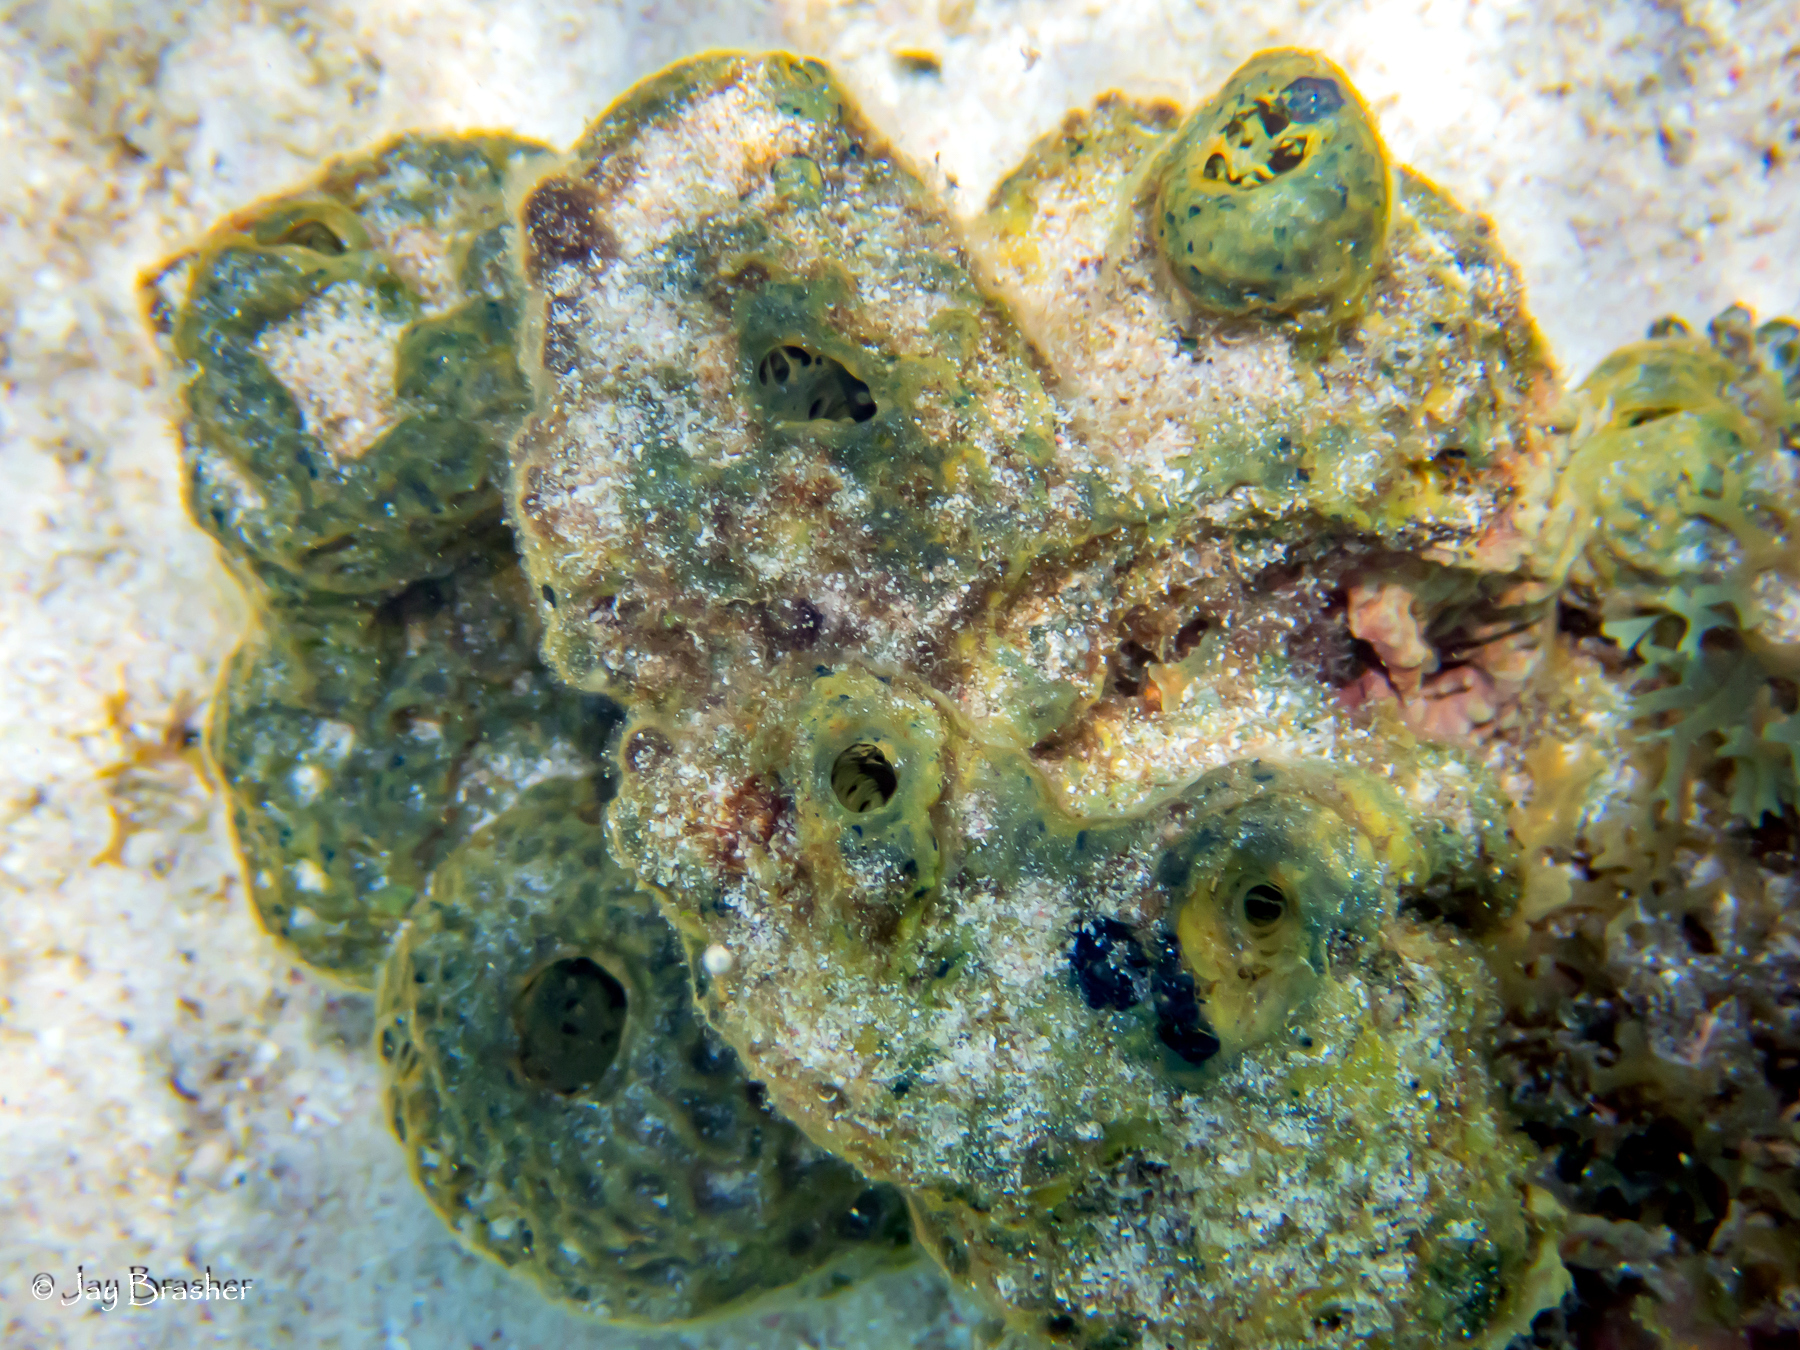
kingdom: Animalia
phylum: Porifera
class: Demospongiae
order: Verongiida
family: Aplysinidae
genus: Verongula
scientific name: Verongula rigida
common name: Pitted sponge
